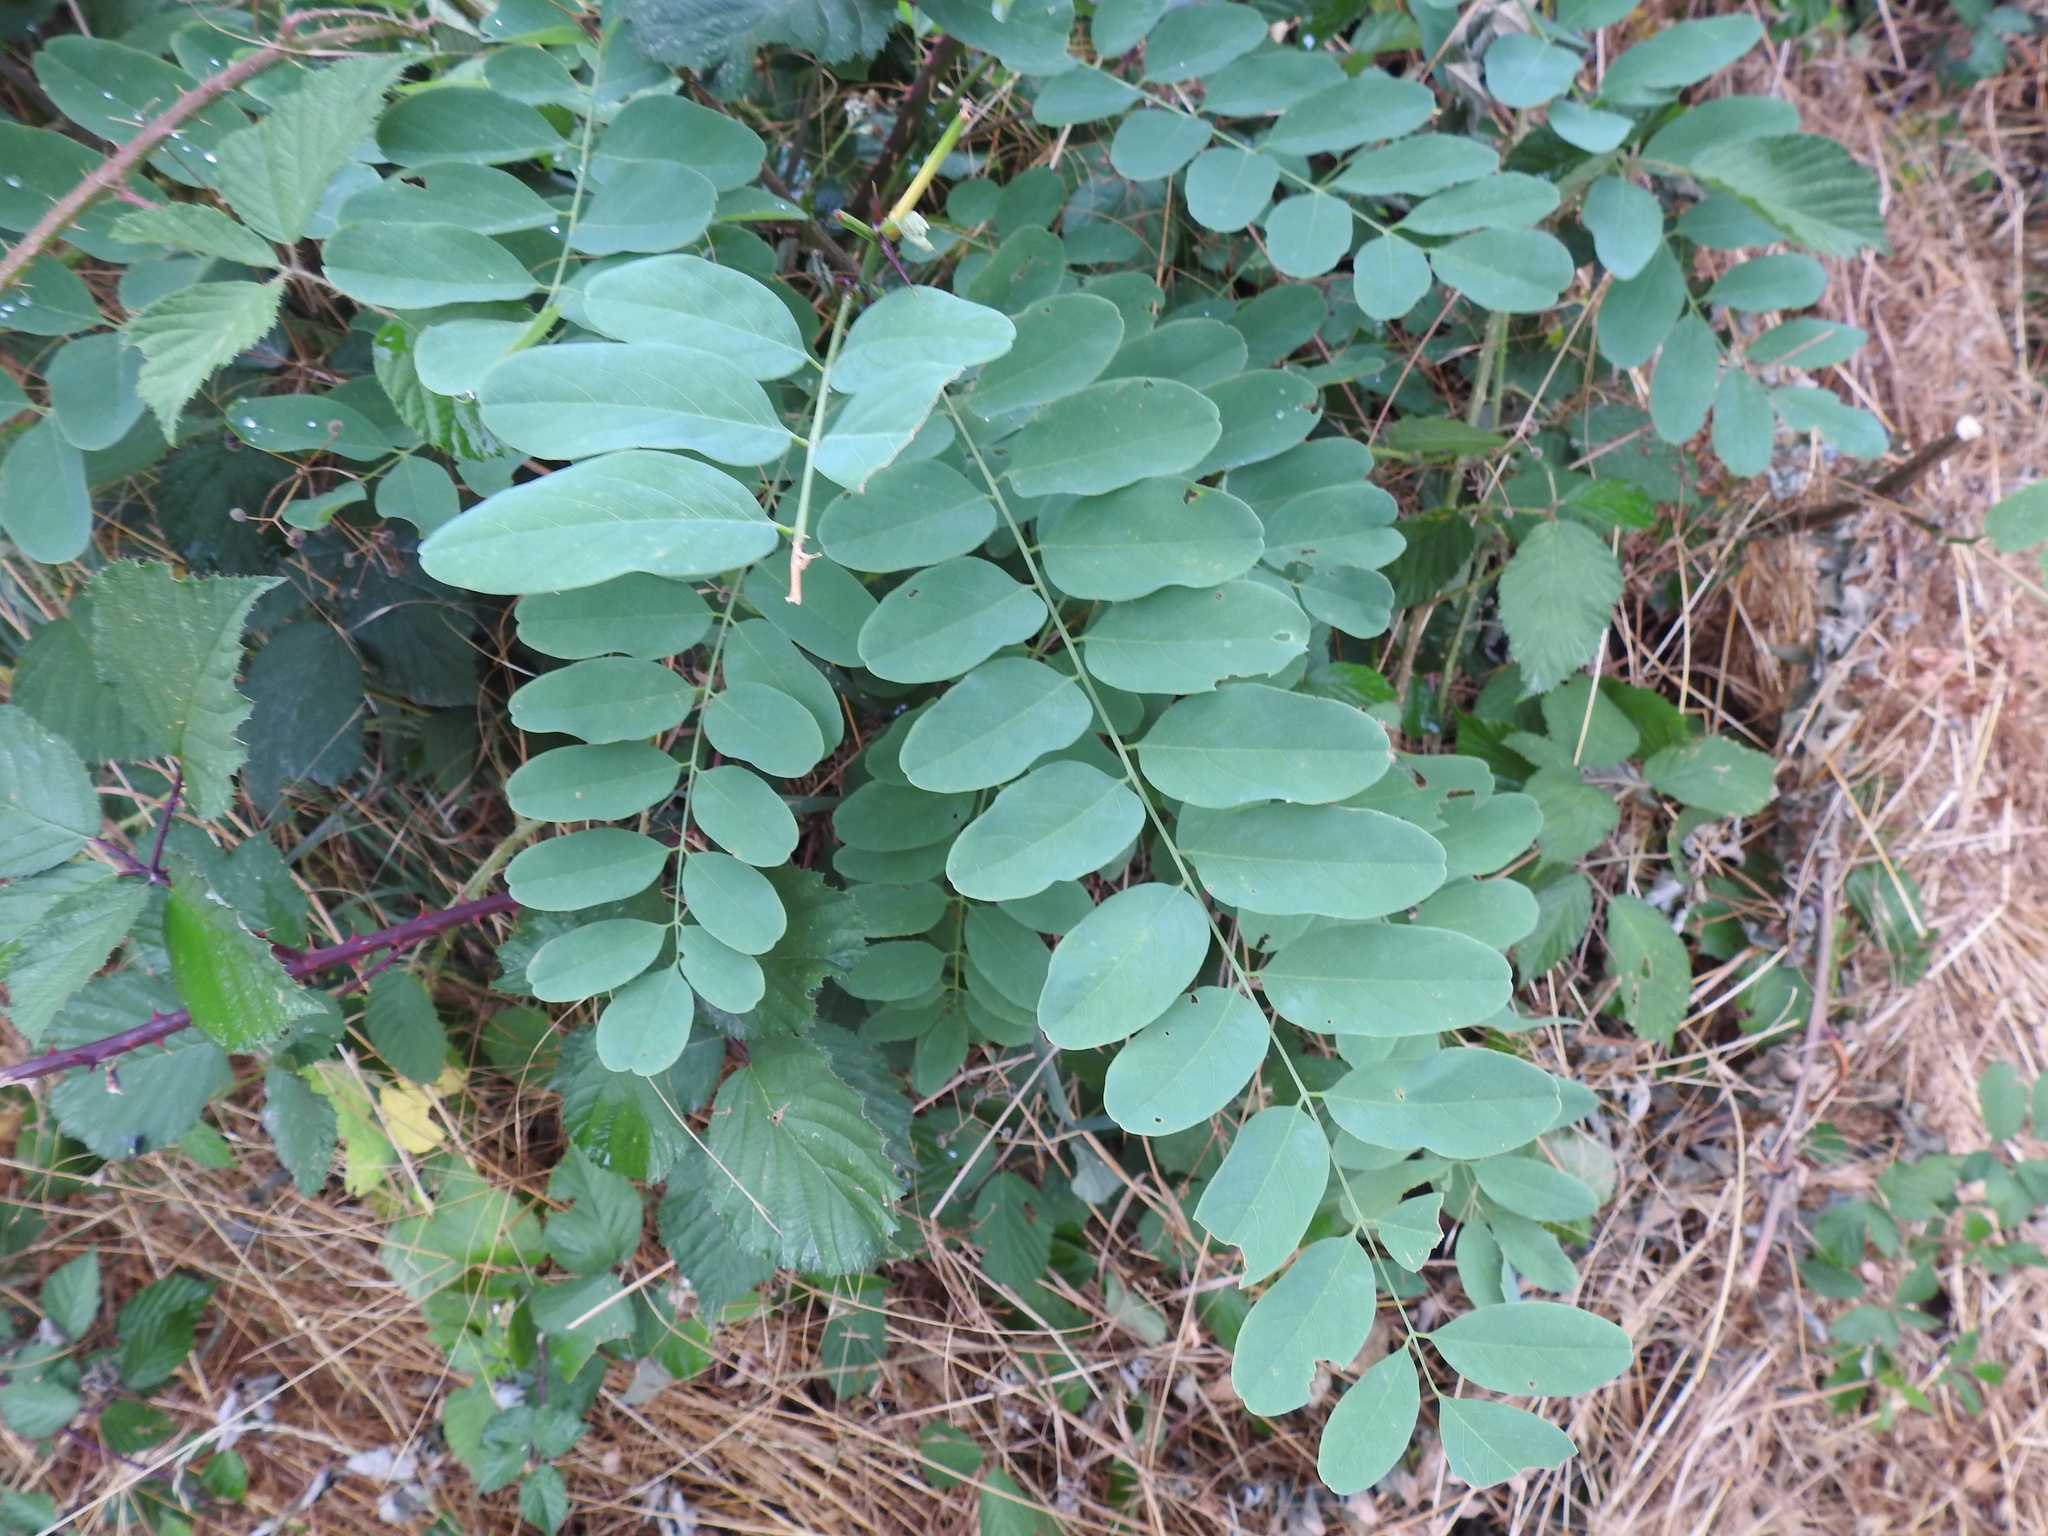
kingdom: Plantae
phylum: Tracheophyta
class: Magnoliopsida
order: Fabales
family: Fabaceae
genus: Robinia
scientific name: Robinia pseudoacacia
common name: Black locust
